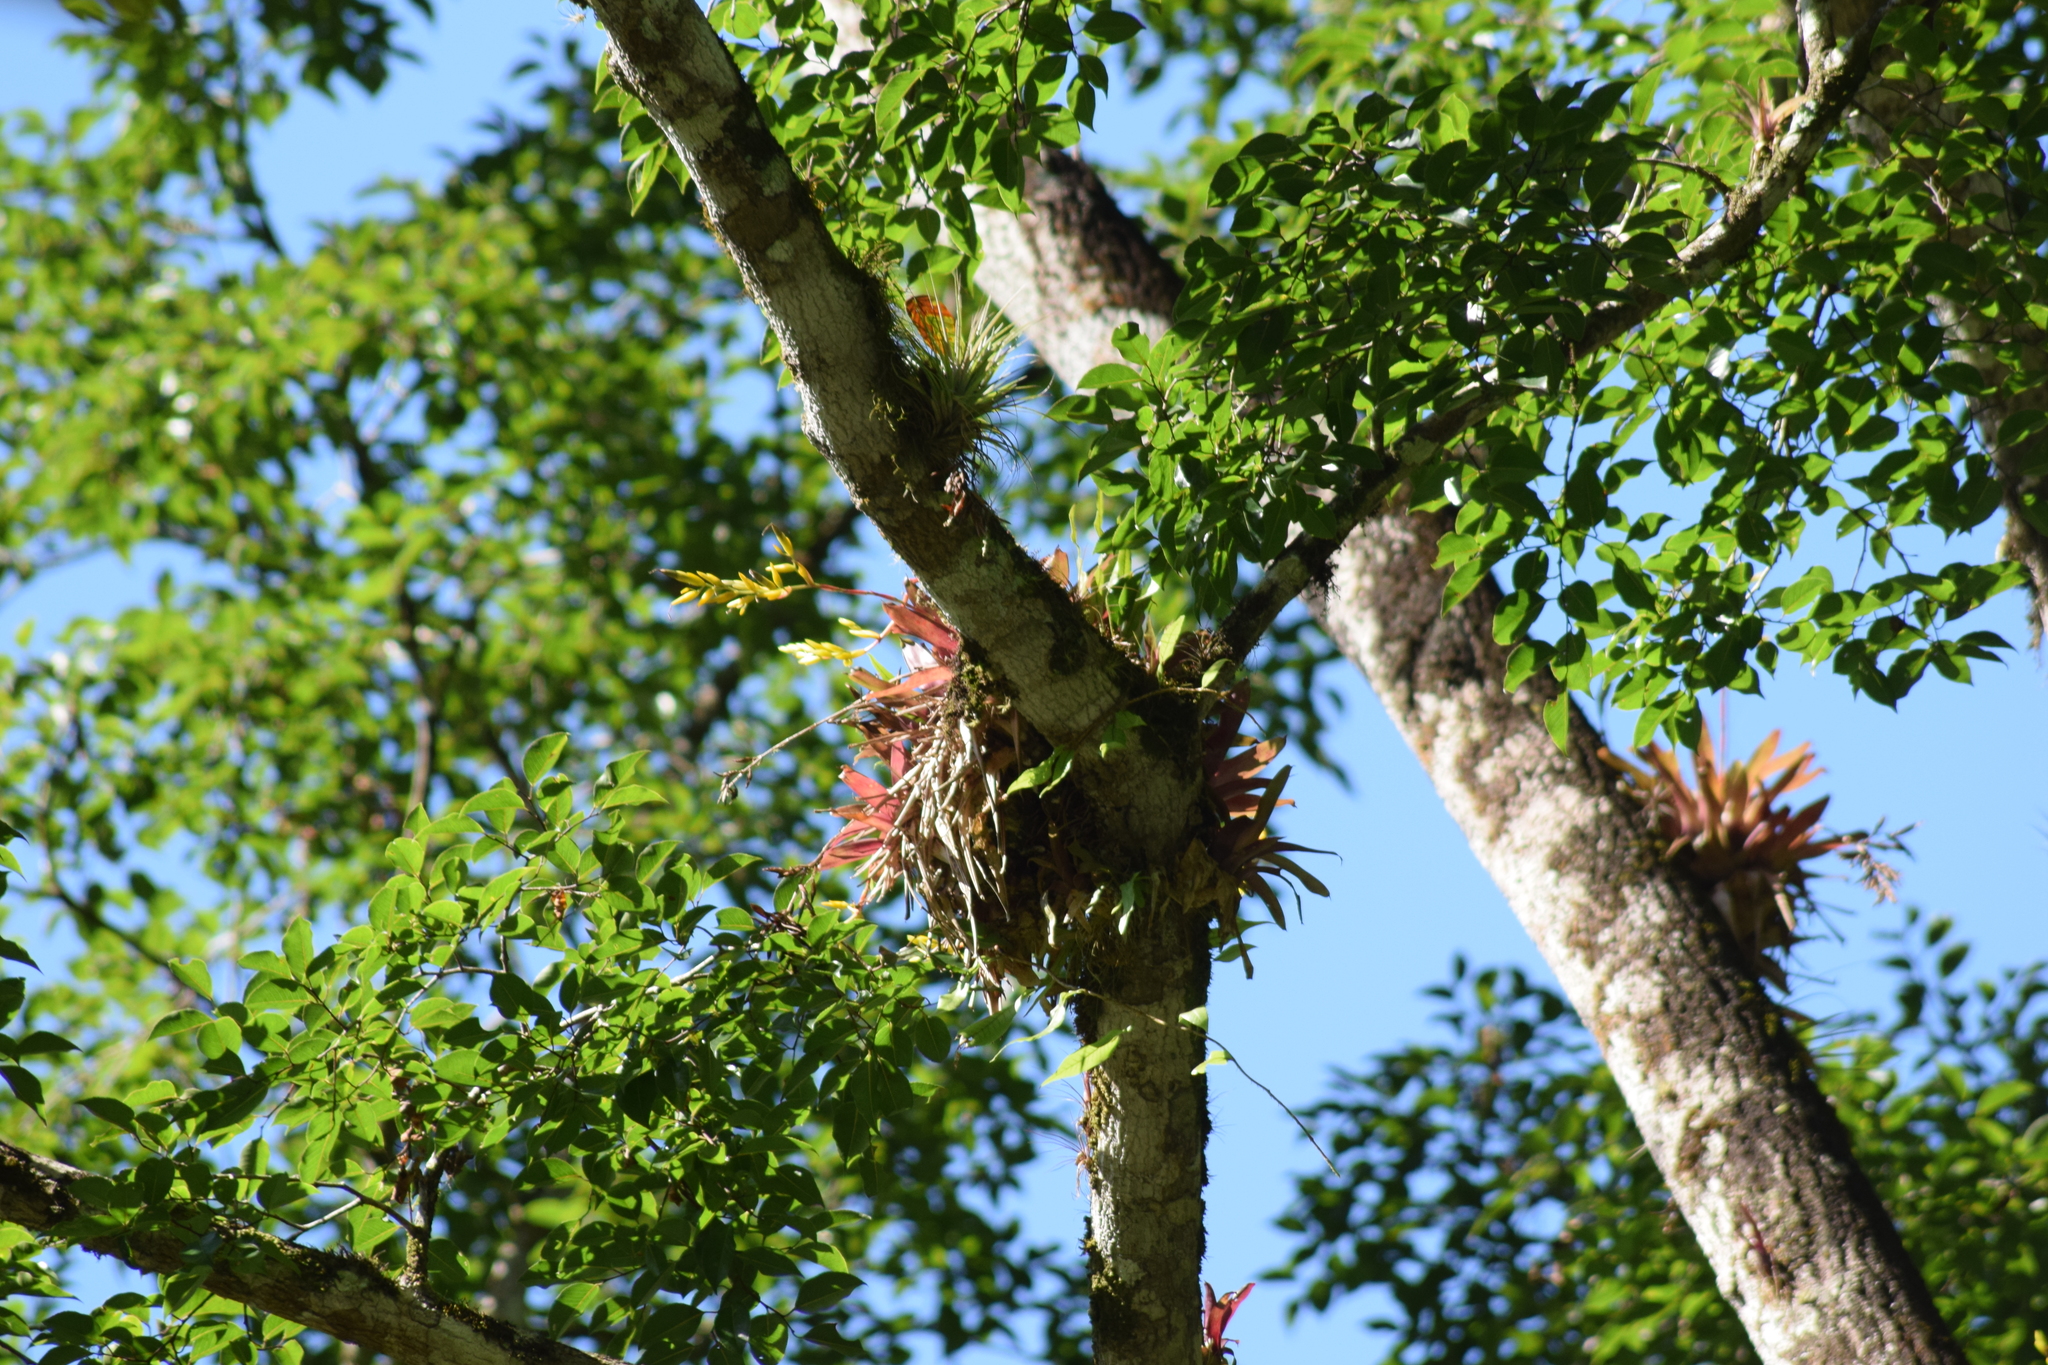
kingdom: Plantae
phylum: Tracheophyta
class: Liliopsida
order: Poales
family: Bromeliaceae
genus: Vriesea
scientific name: Vriesea rodigasiana
